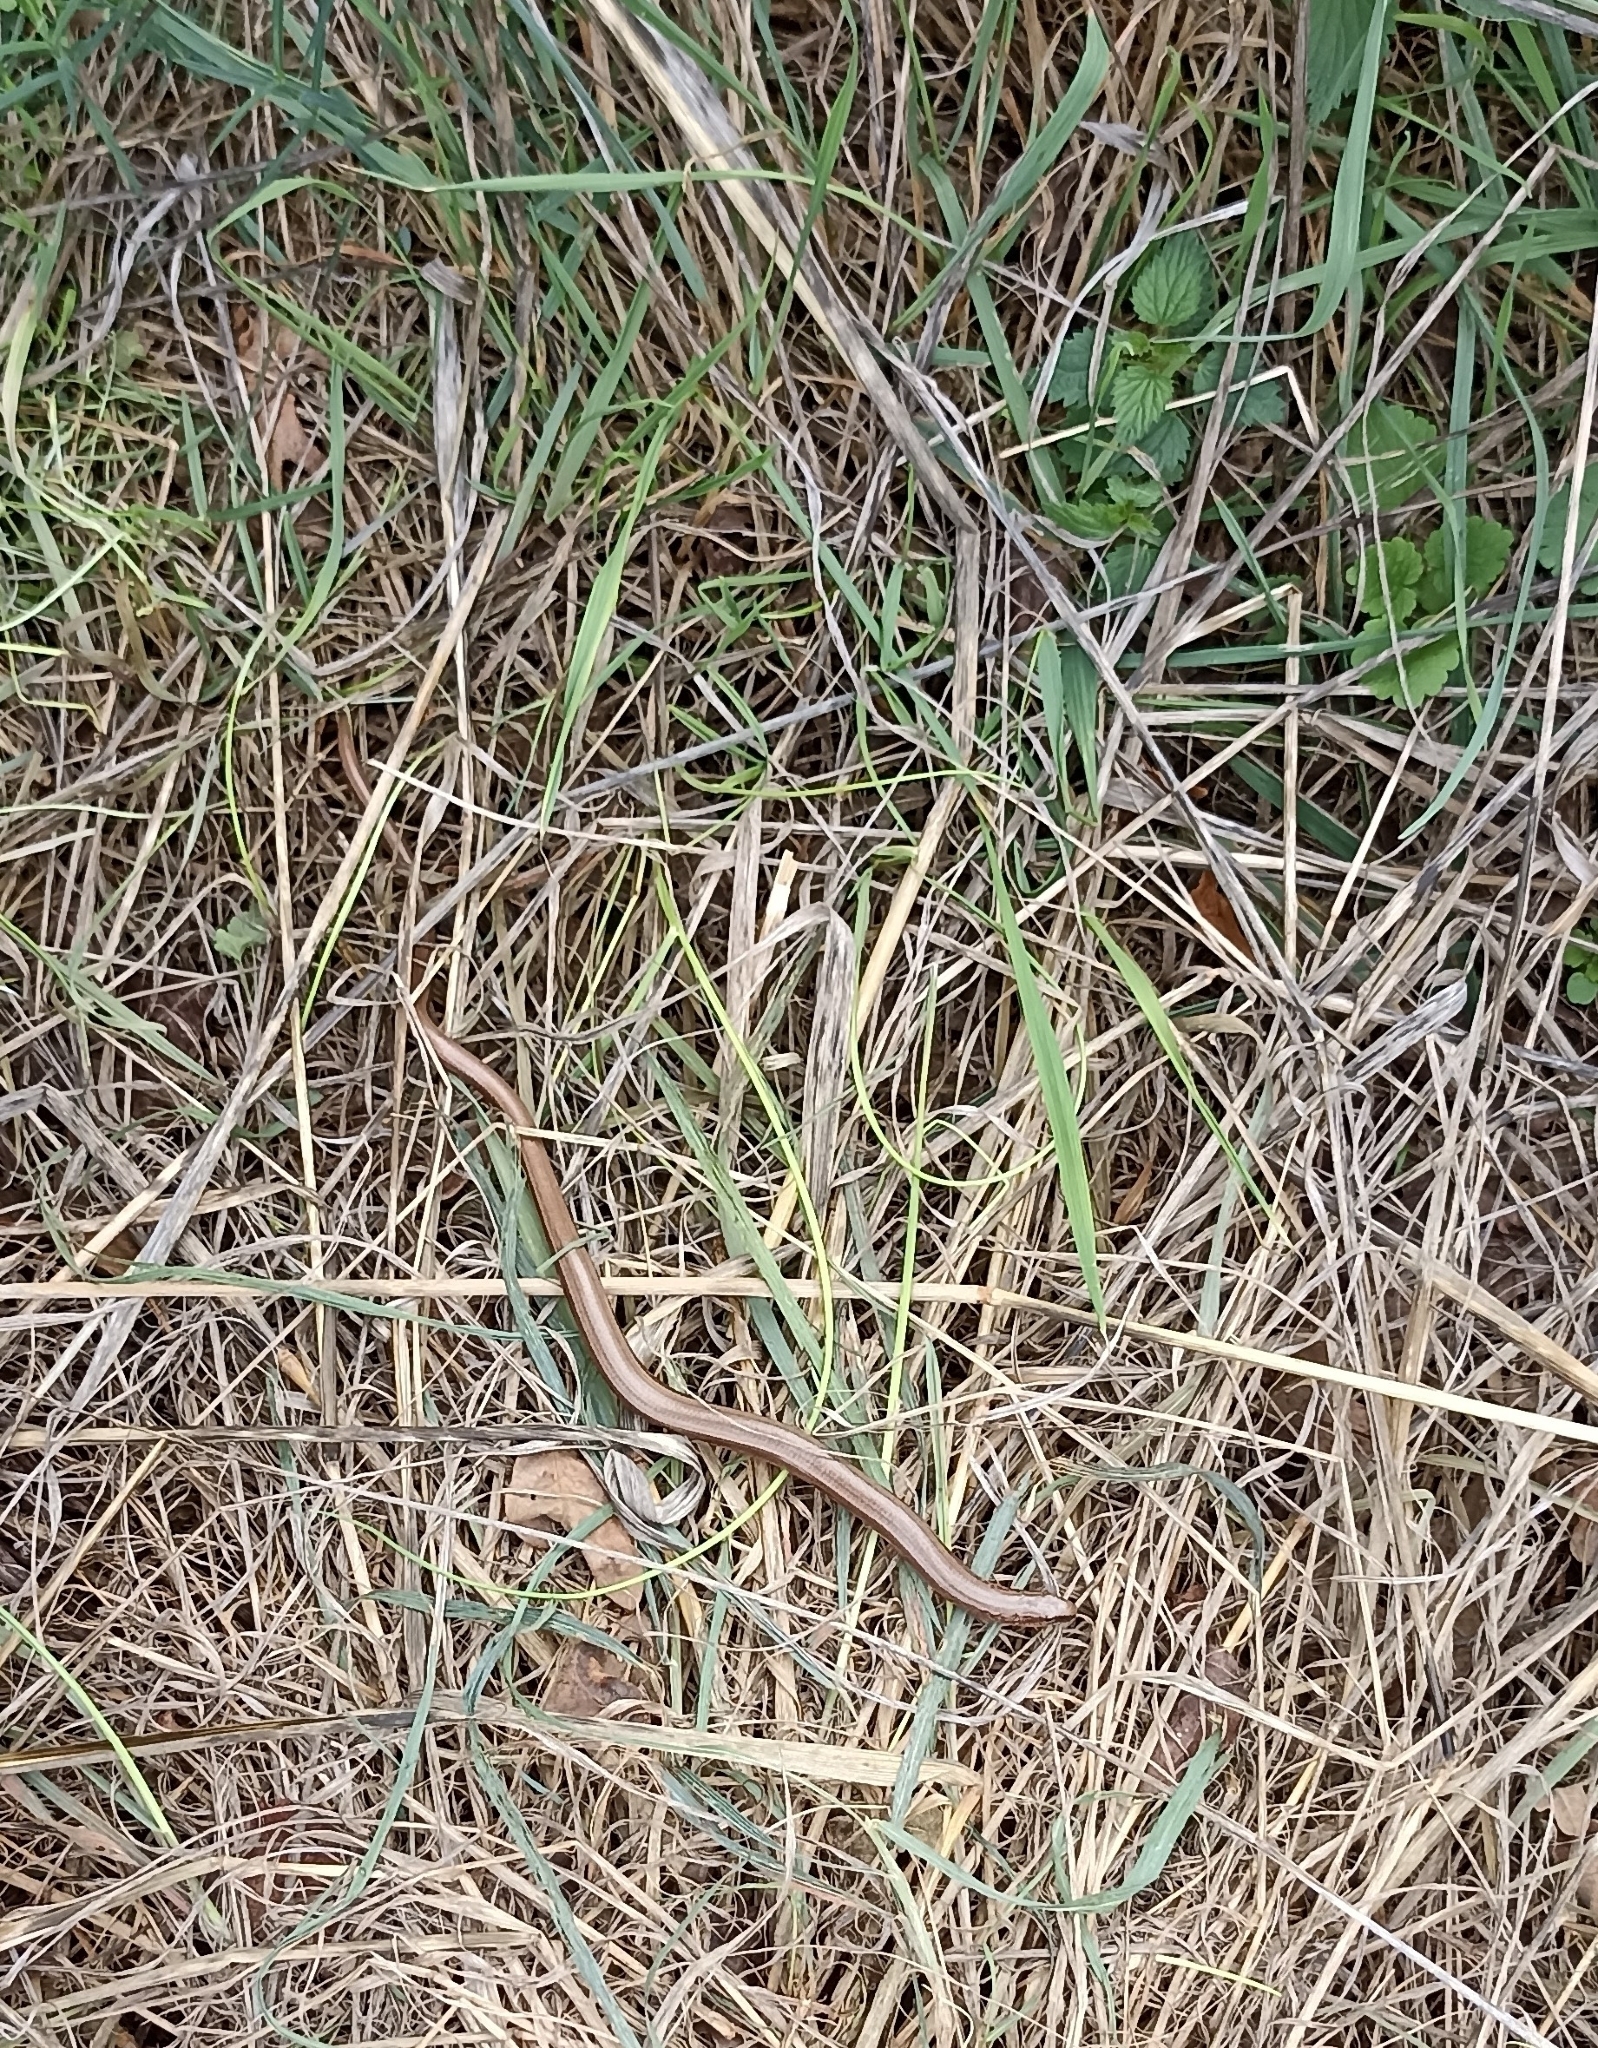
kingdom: Animalia
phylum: Chordata
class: Squamata
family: Anguidae
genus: Anguis
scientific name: Anguis fragilis
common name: Slow worm
